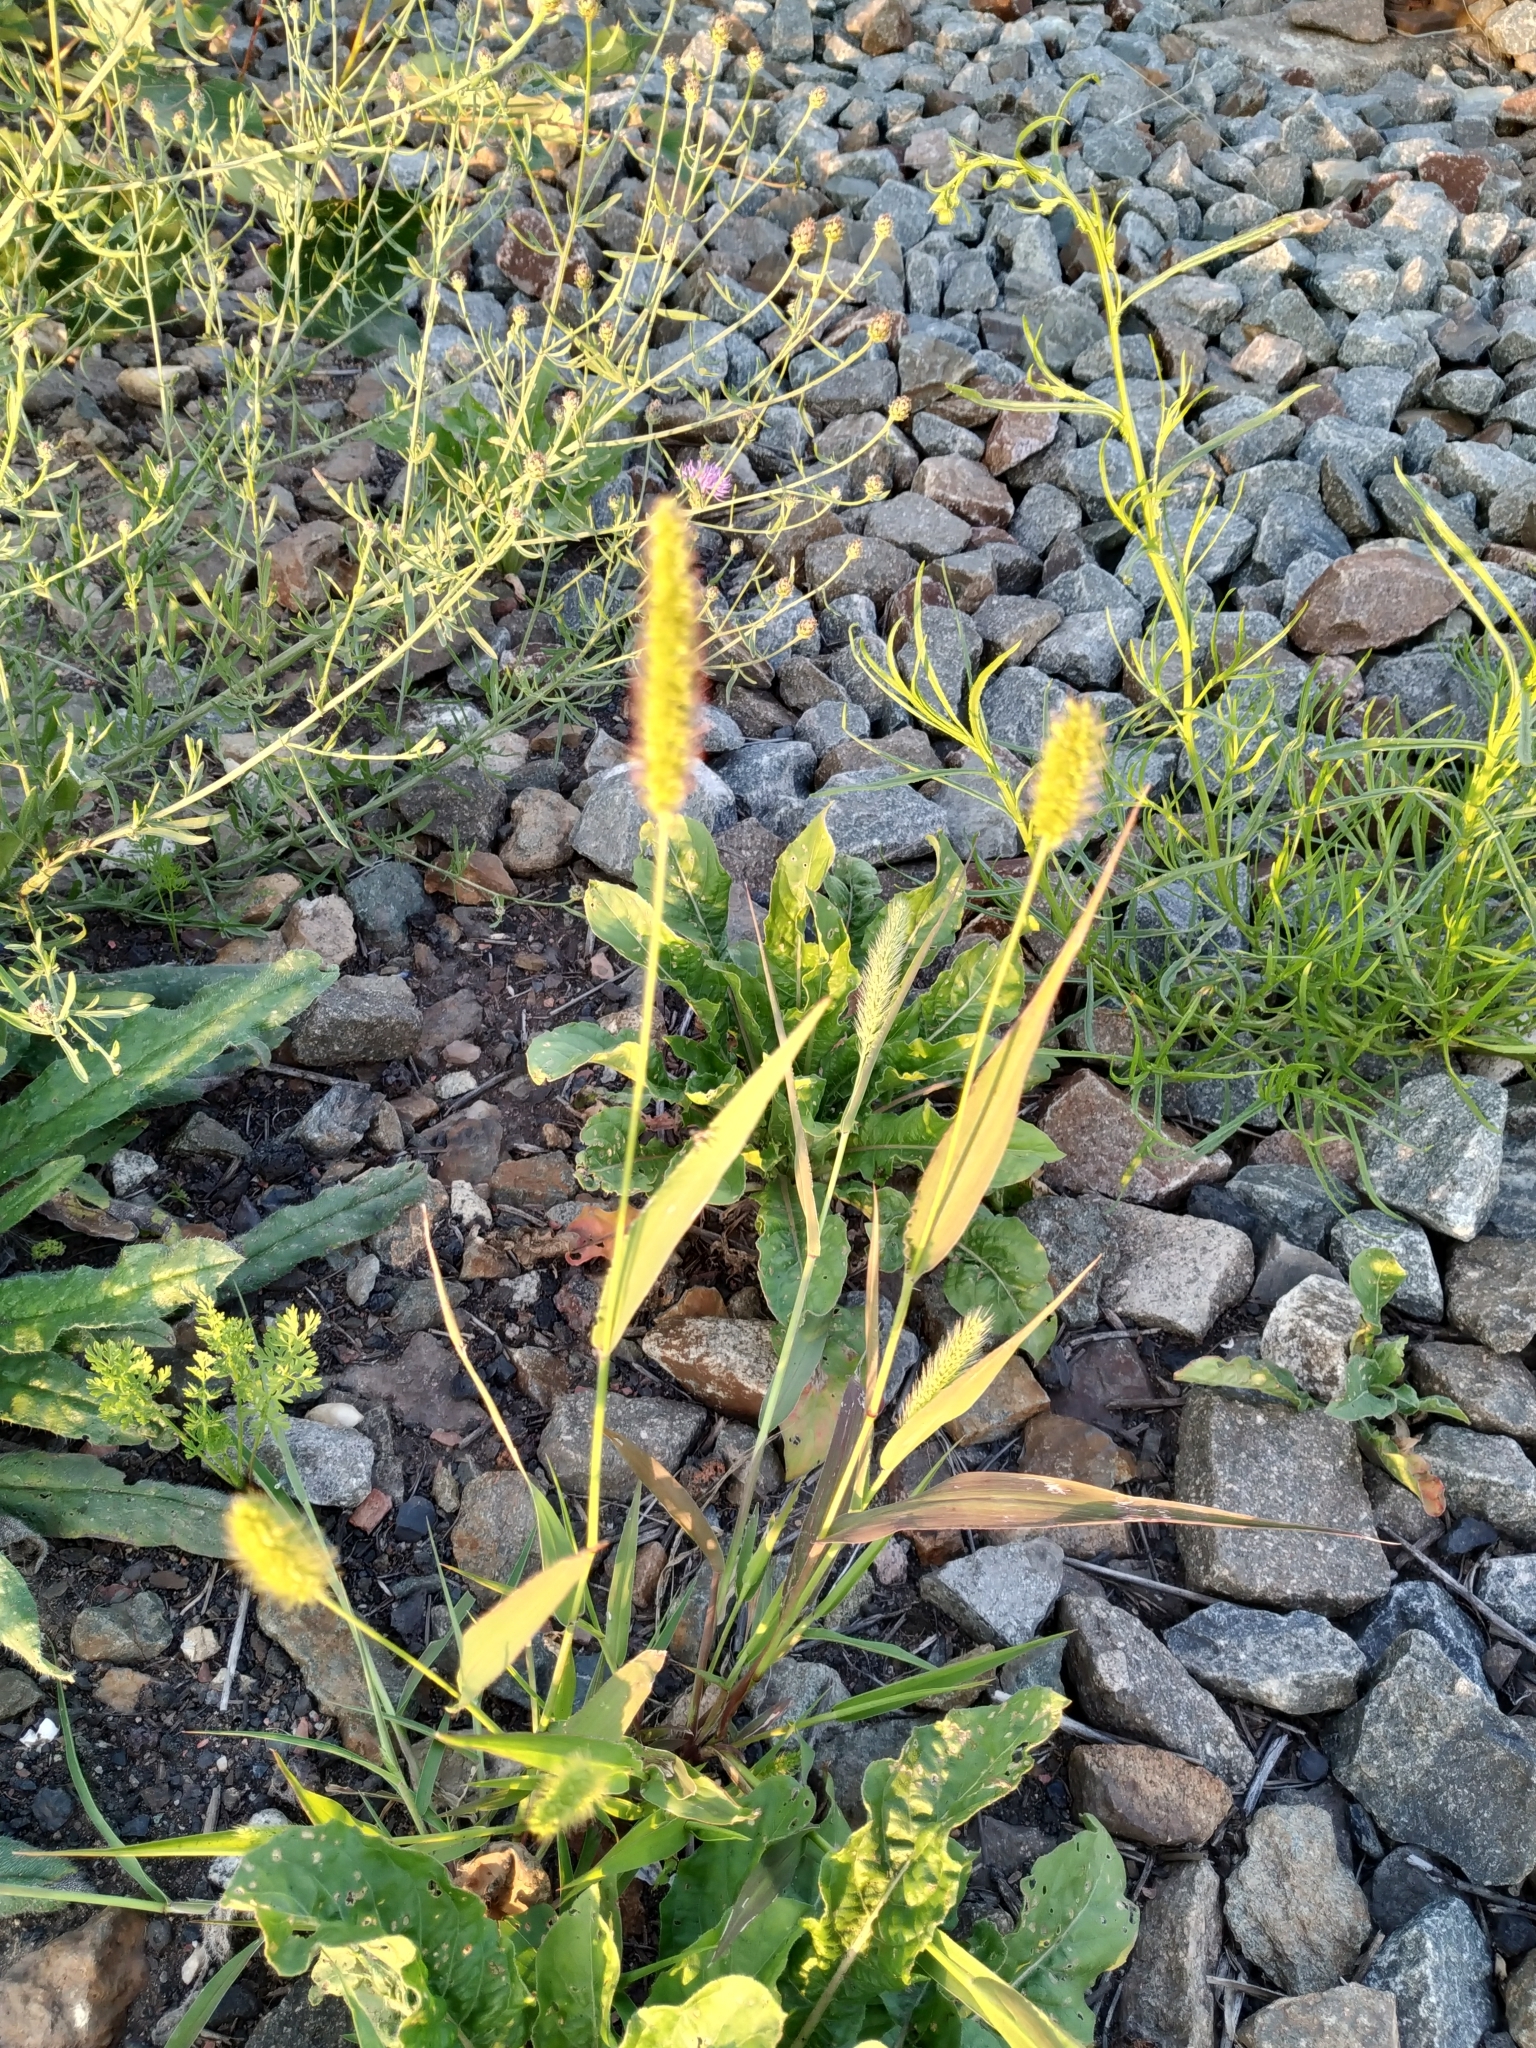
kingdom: Plantae
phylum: Tracheophyta
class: Liliopsida
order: Poales
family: Poaceae
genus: Setaria
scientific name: Setaria pumila
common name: Yellow bristle-grass
